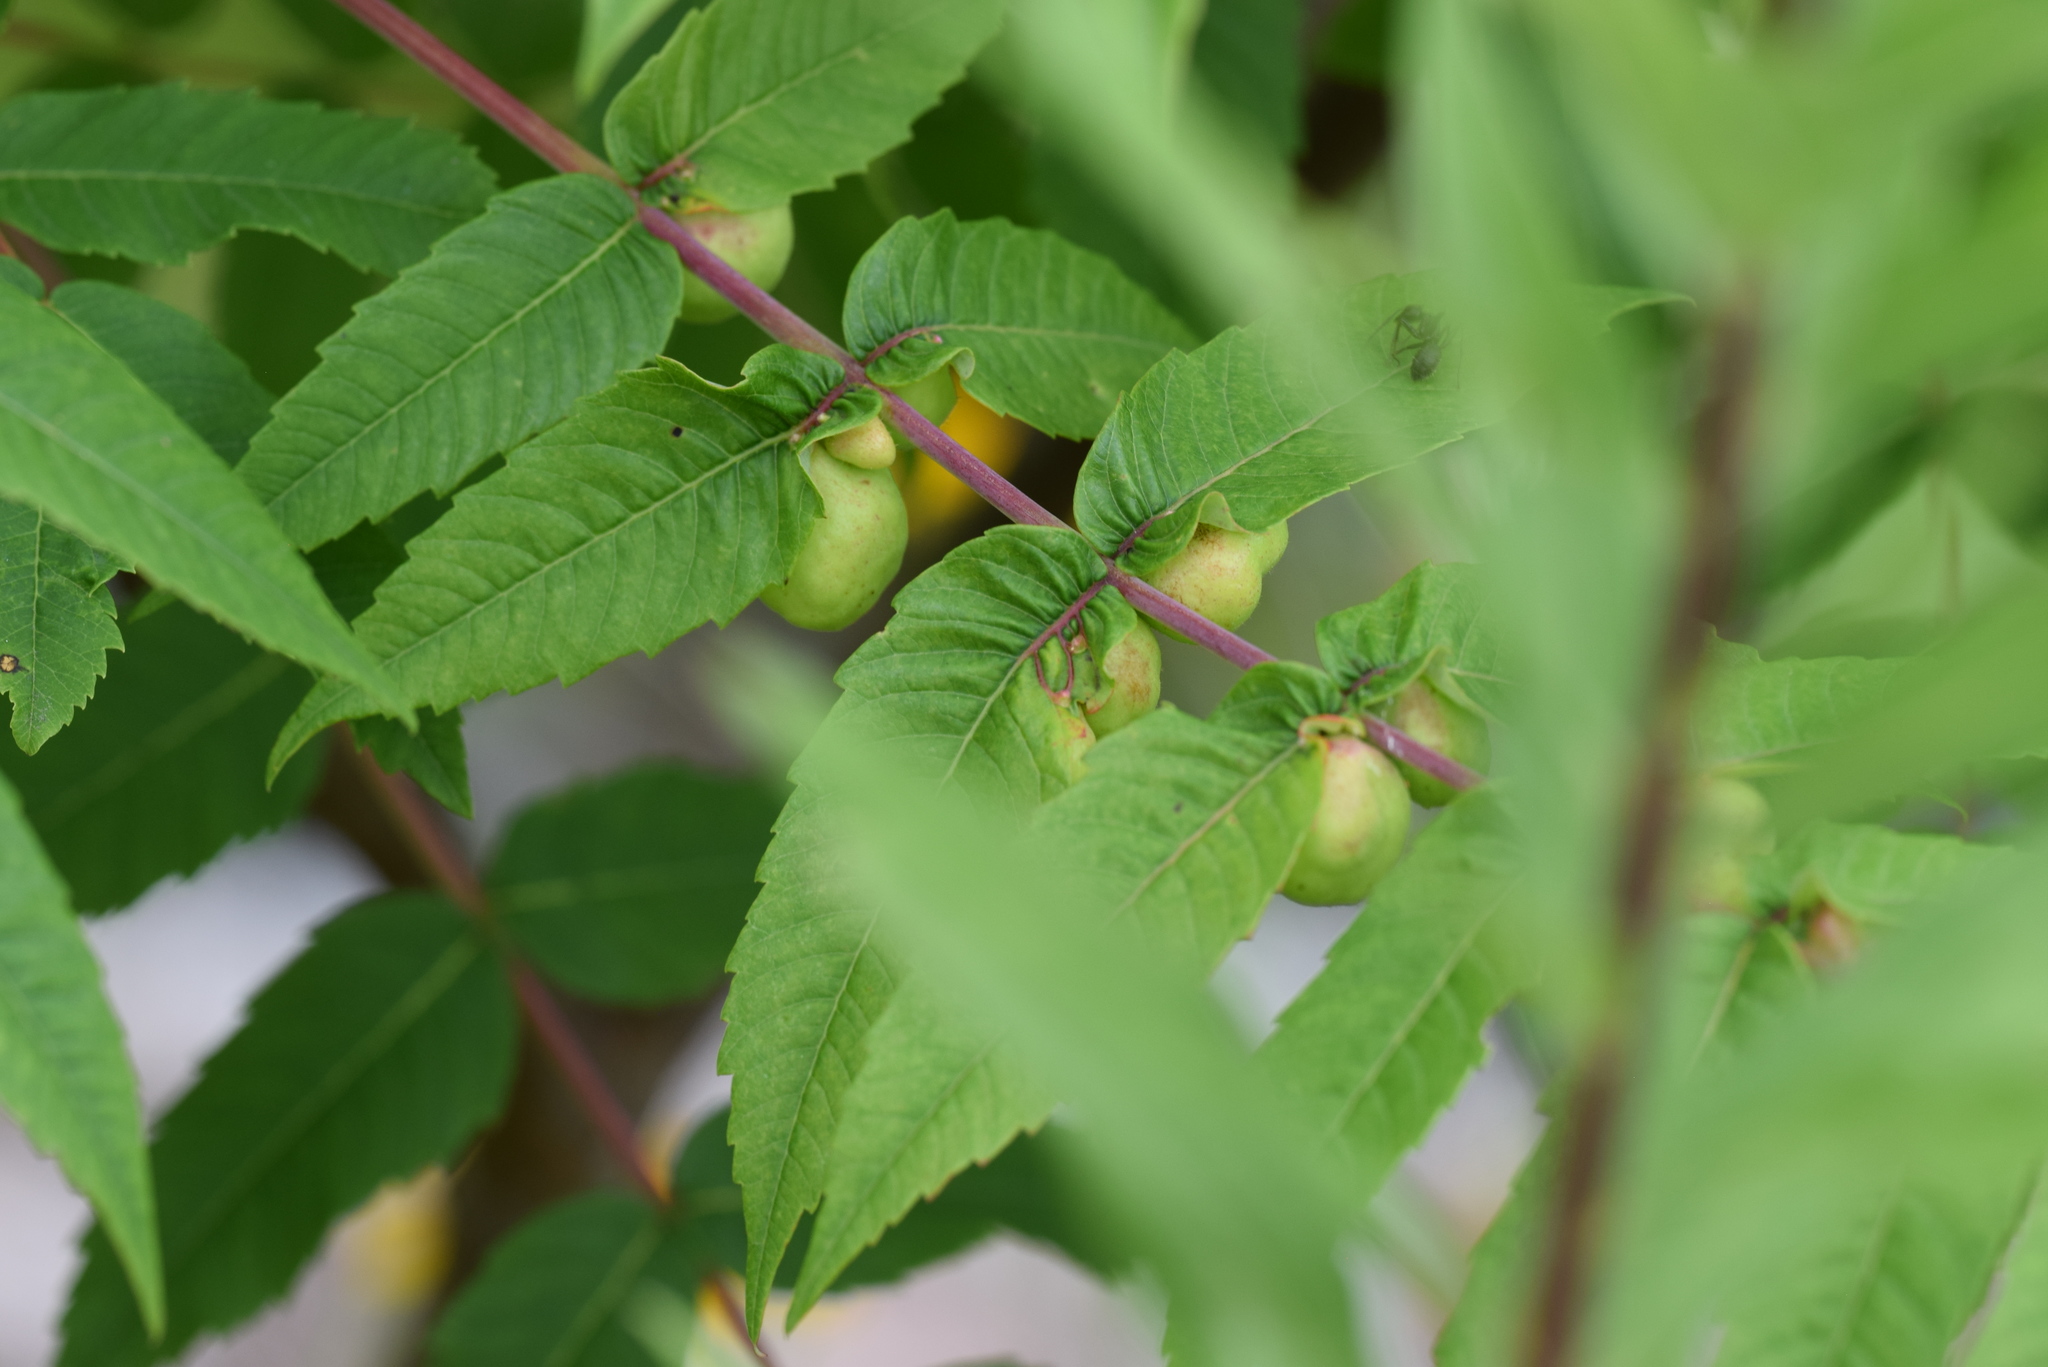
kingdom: Animalia
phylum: Arthropoda
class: Insecta
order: Hemiptera
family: Aphididae
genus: Melaphis
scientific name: Melaphis rhois
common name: Sumac gall aphid
